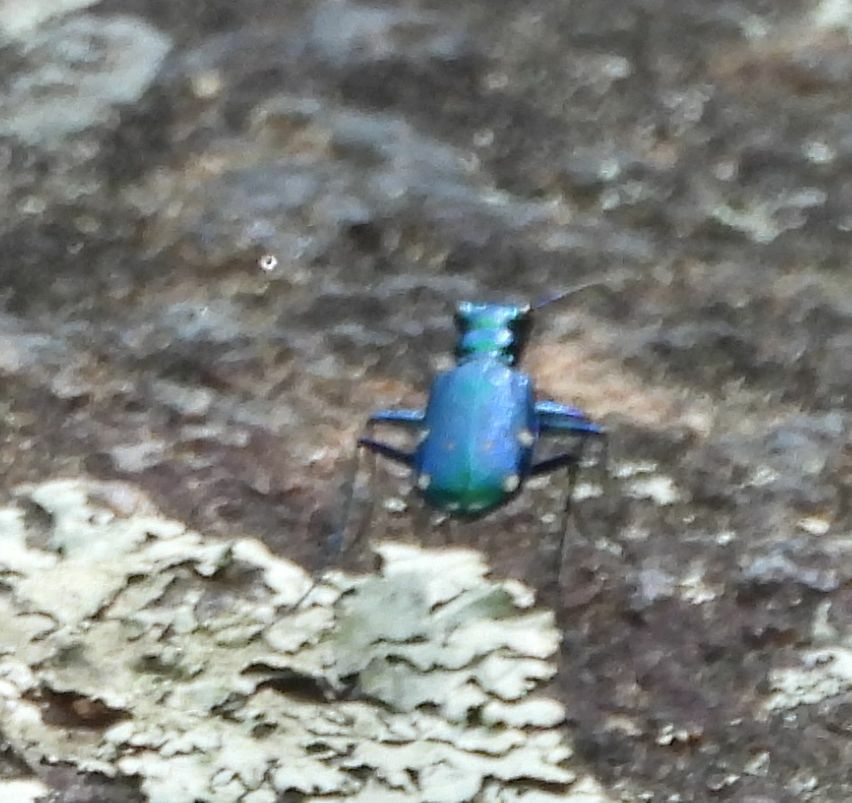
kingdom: Animalia
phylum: Arthropoda
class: Insecta
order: Coleoptera
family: Carabidae
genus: Cicindela
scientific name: Cicindela sexguttata
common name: Six-spotted tiger beetle
